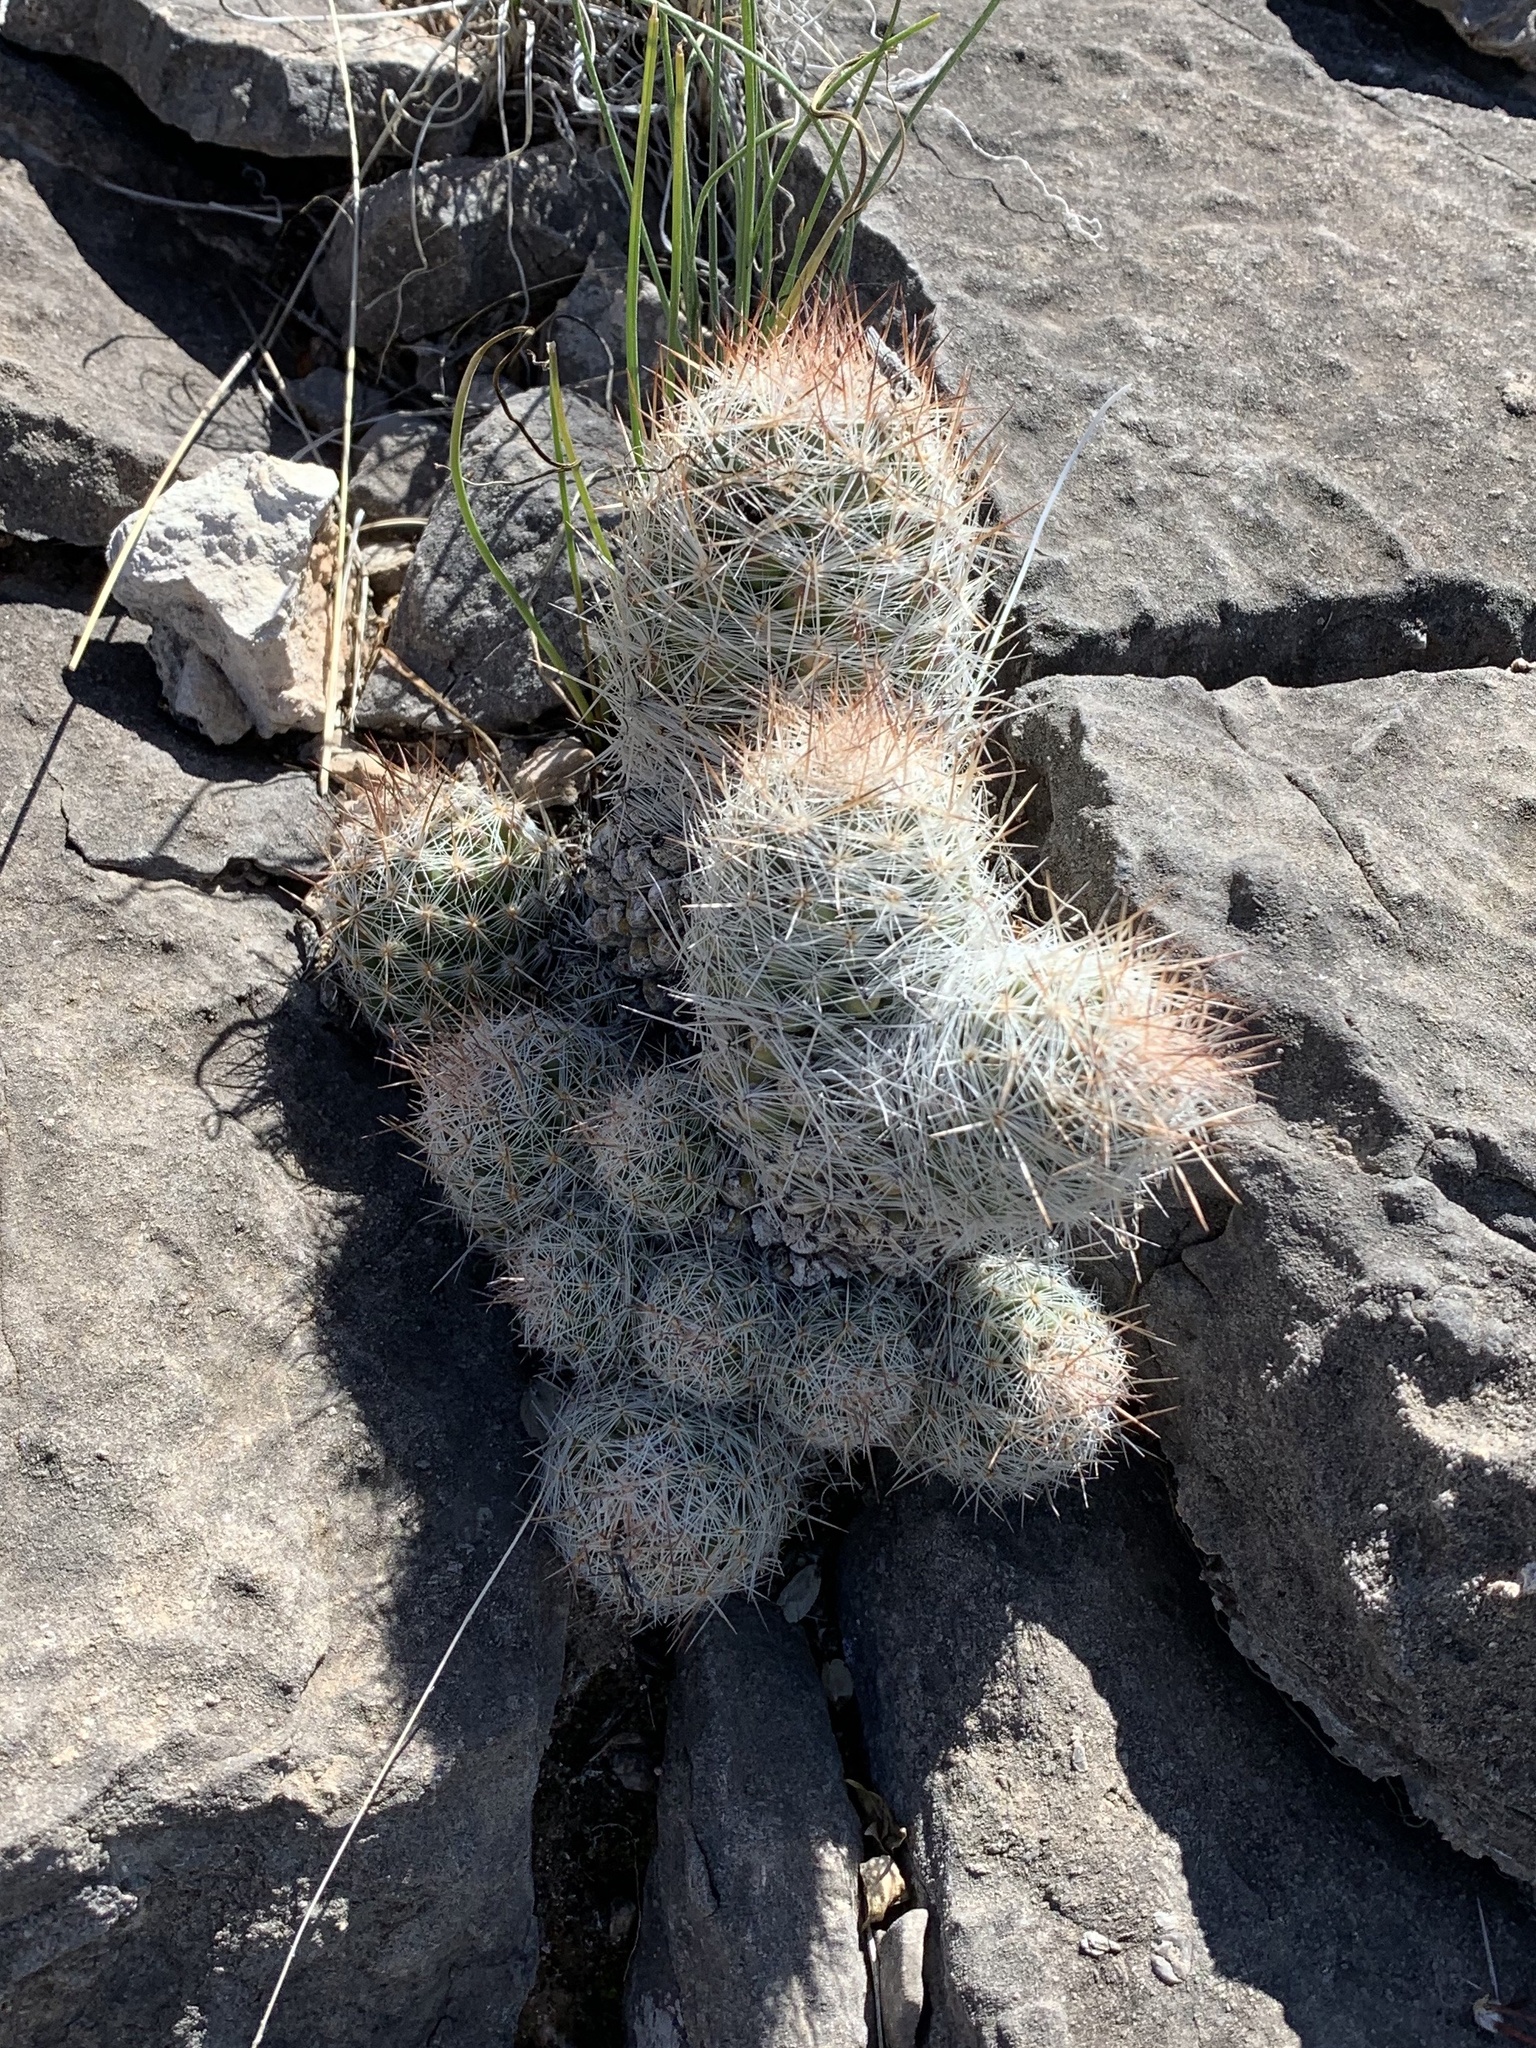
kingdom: Plantae
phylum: Tracheophyta
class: Magnoliopsida
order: Caryophyllales
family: Cactaceae
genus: Pelecyphora
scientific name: Pelecyphora tuberculosa
